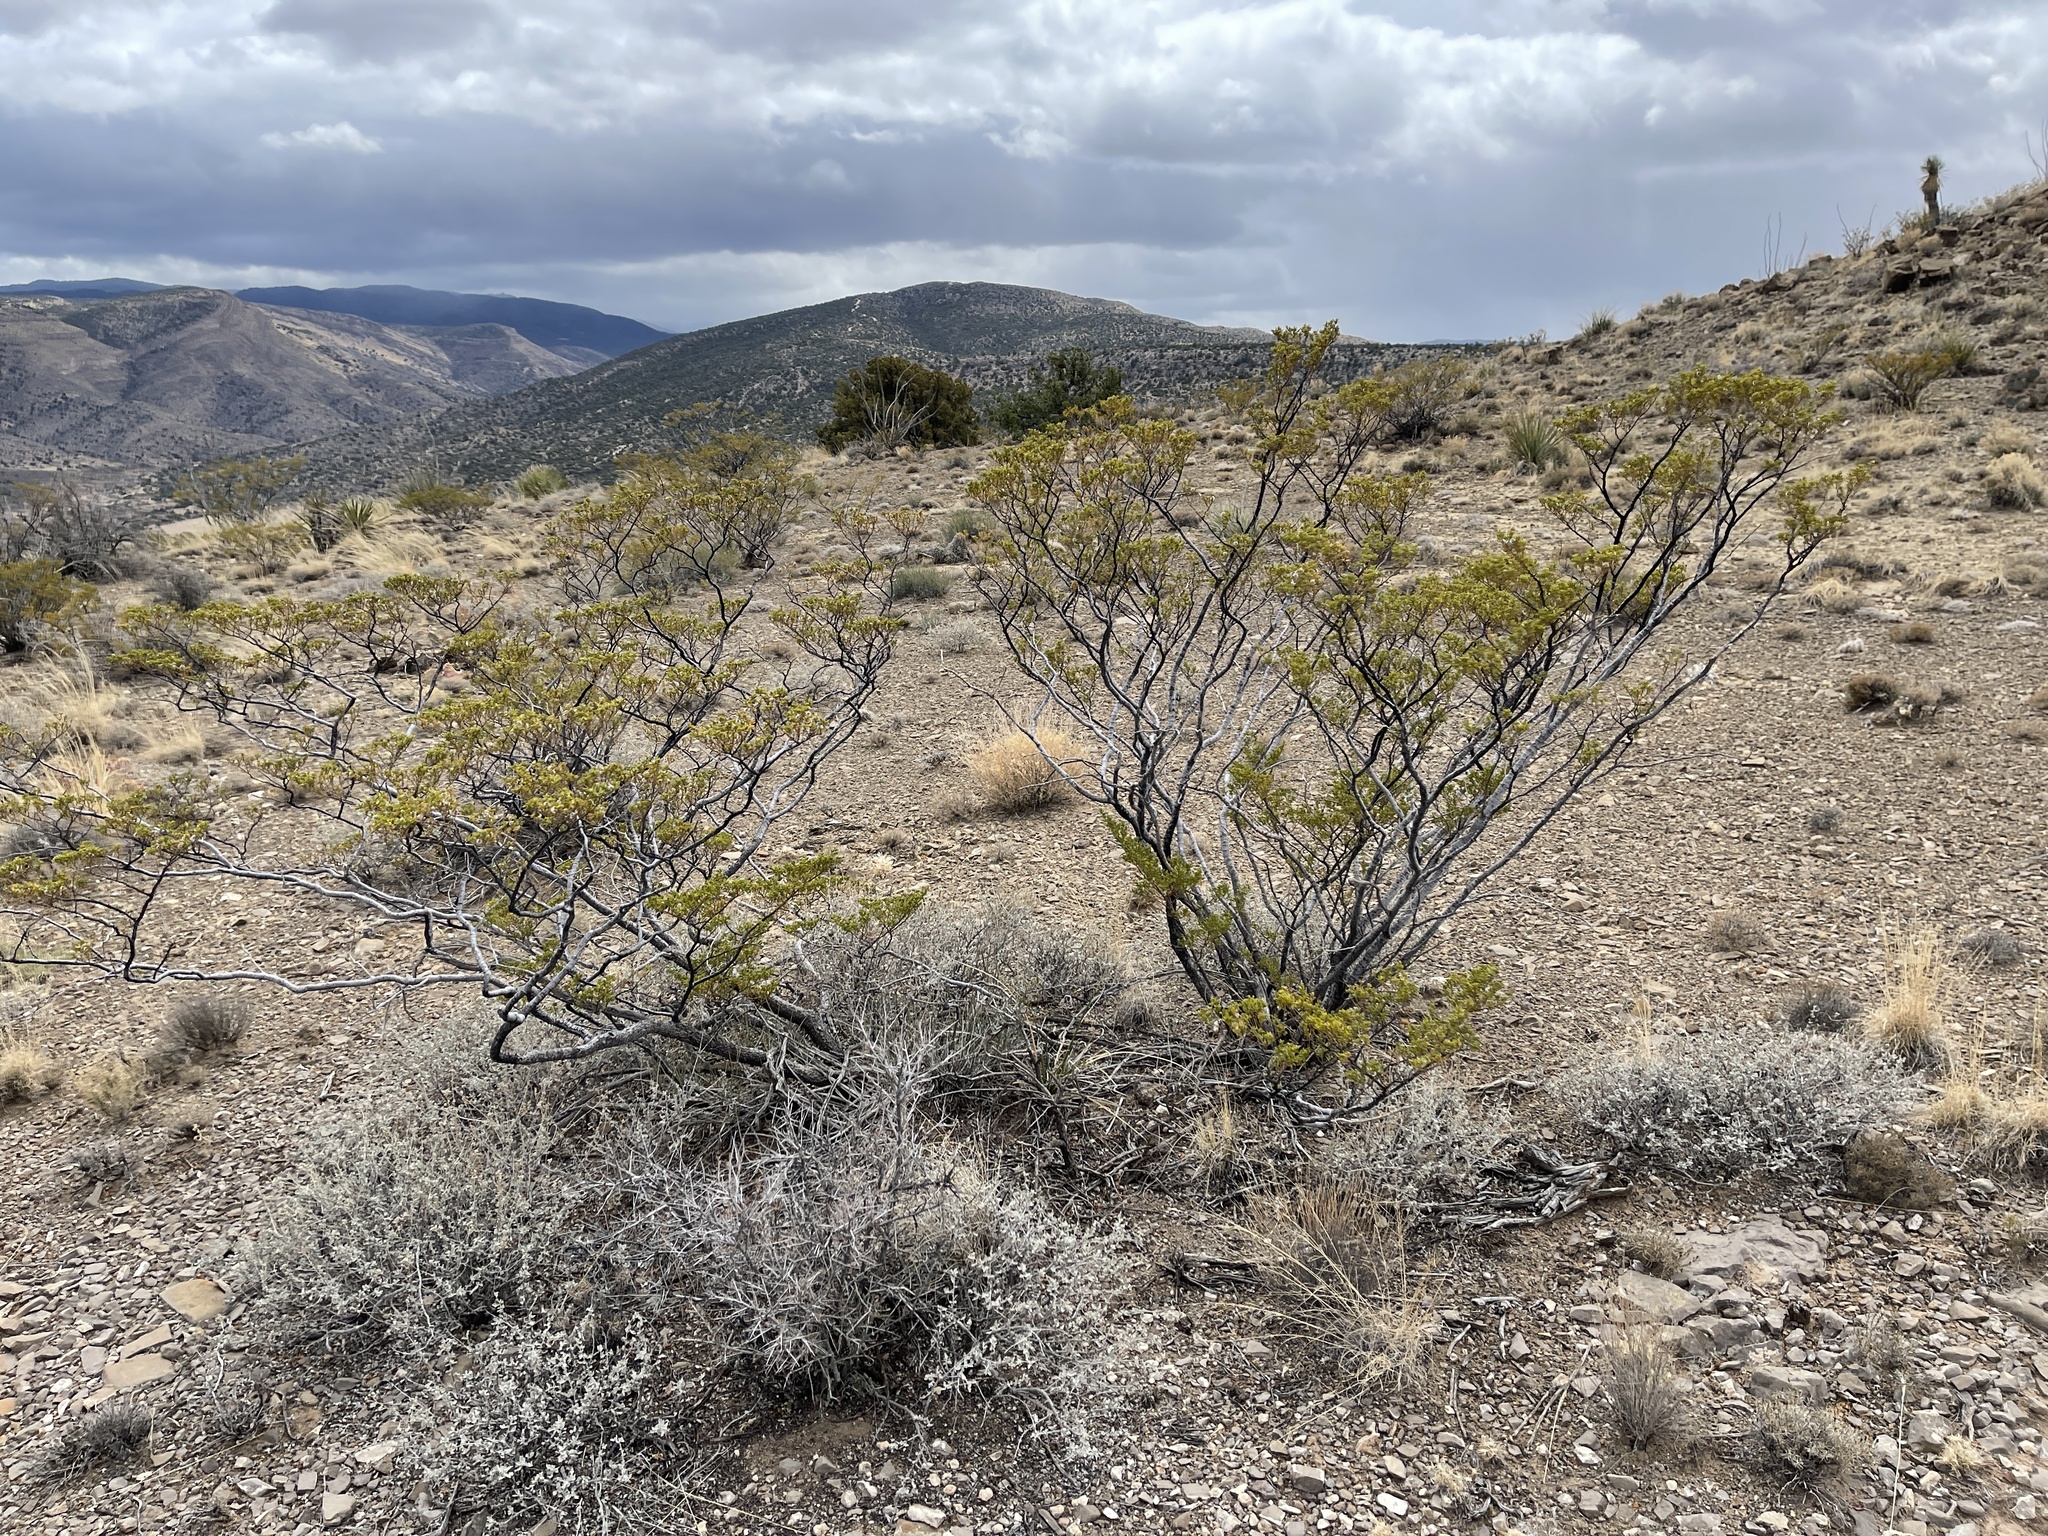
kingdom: Plantae
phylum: Tracheophyta
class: Magnoliopsida
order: Zygophyllales
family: Zygophyllaceae
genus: Larrea
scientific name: Larrea tridentata
